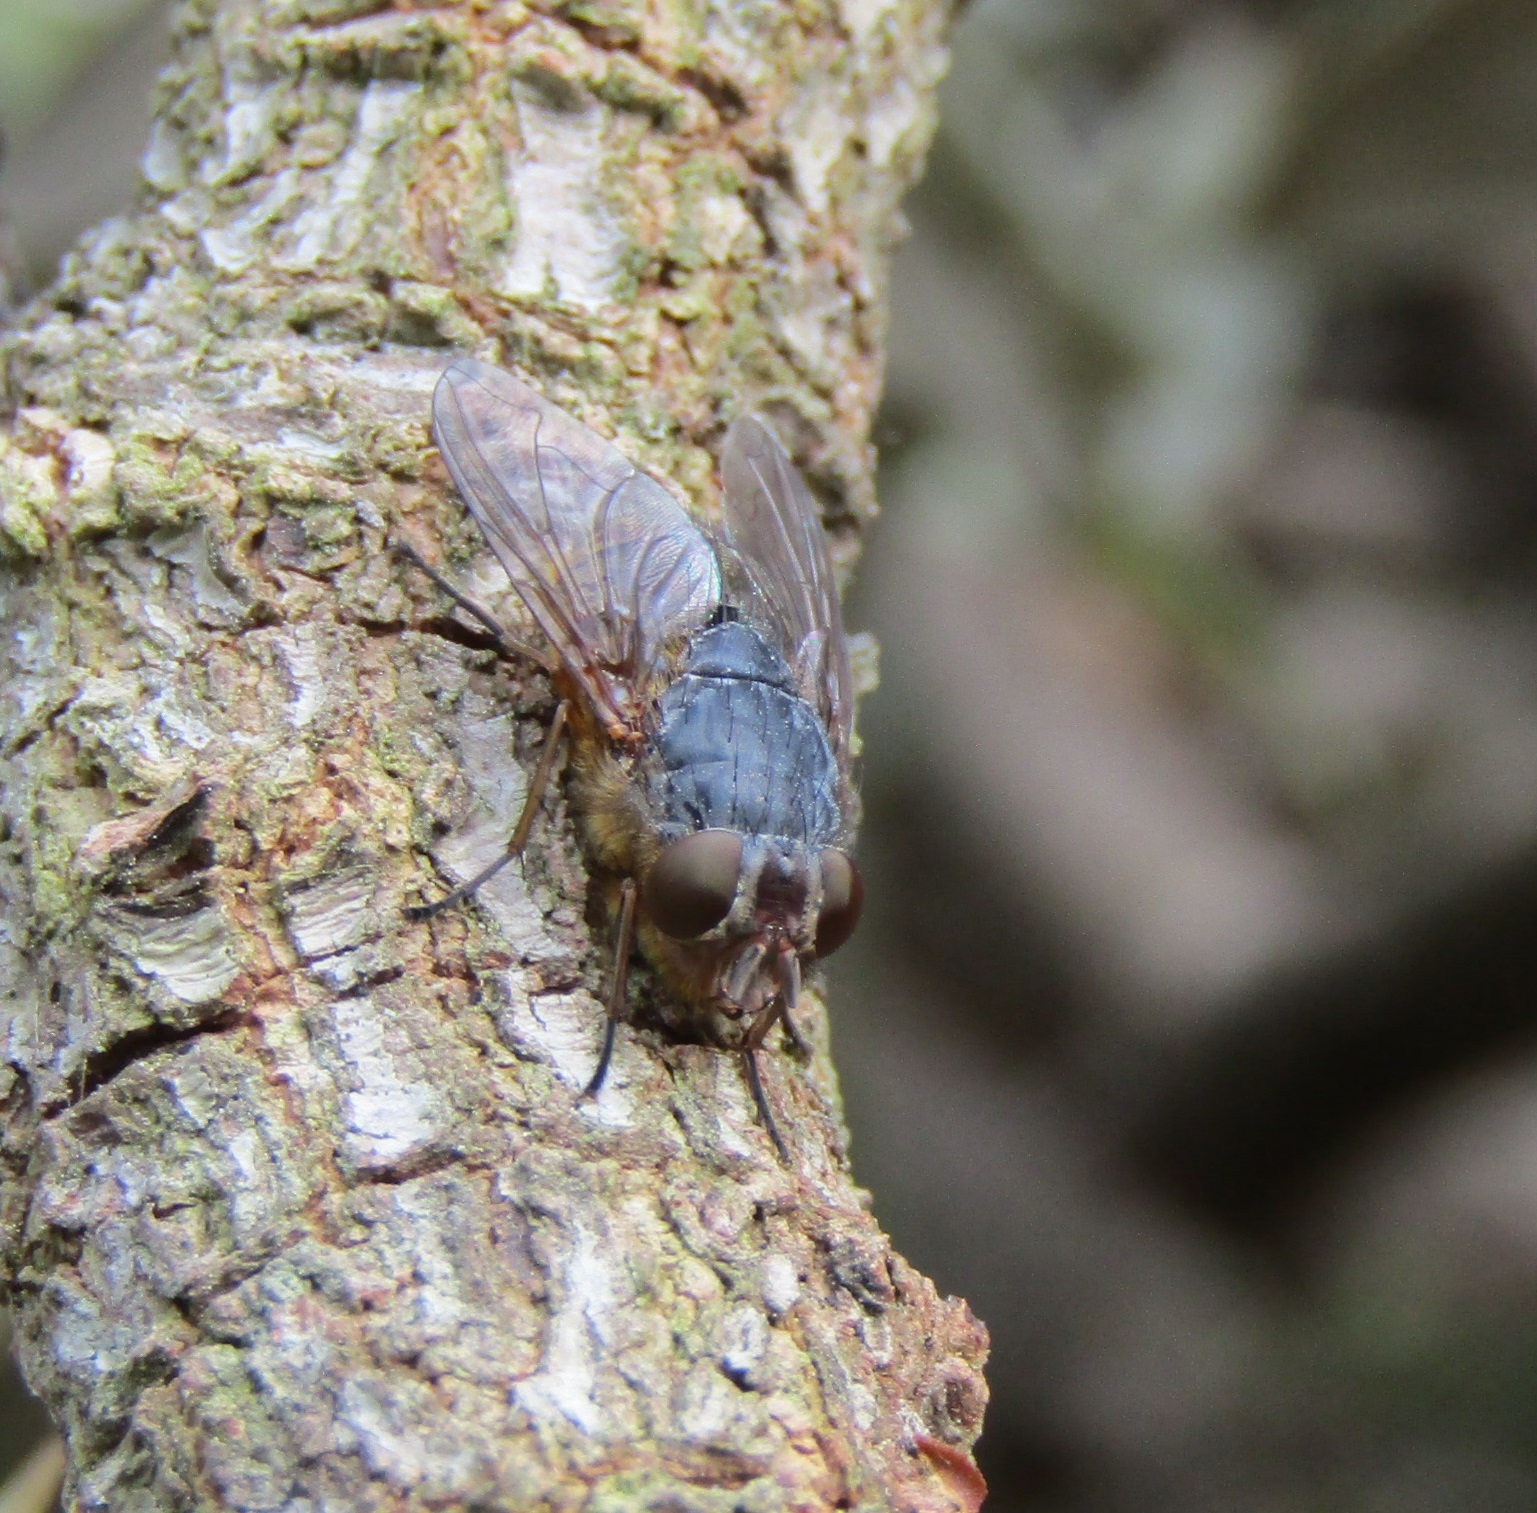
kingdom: Animalia
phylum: Arthropoda
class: Insecta
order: Diptera
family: Calliphoridae
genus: Calliphora
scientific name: Calliphora stygia
